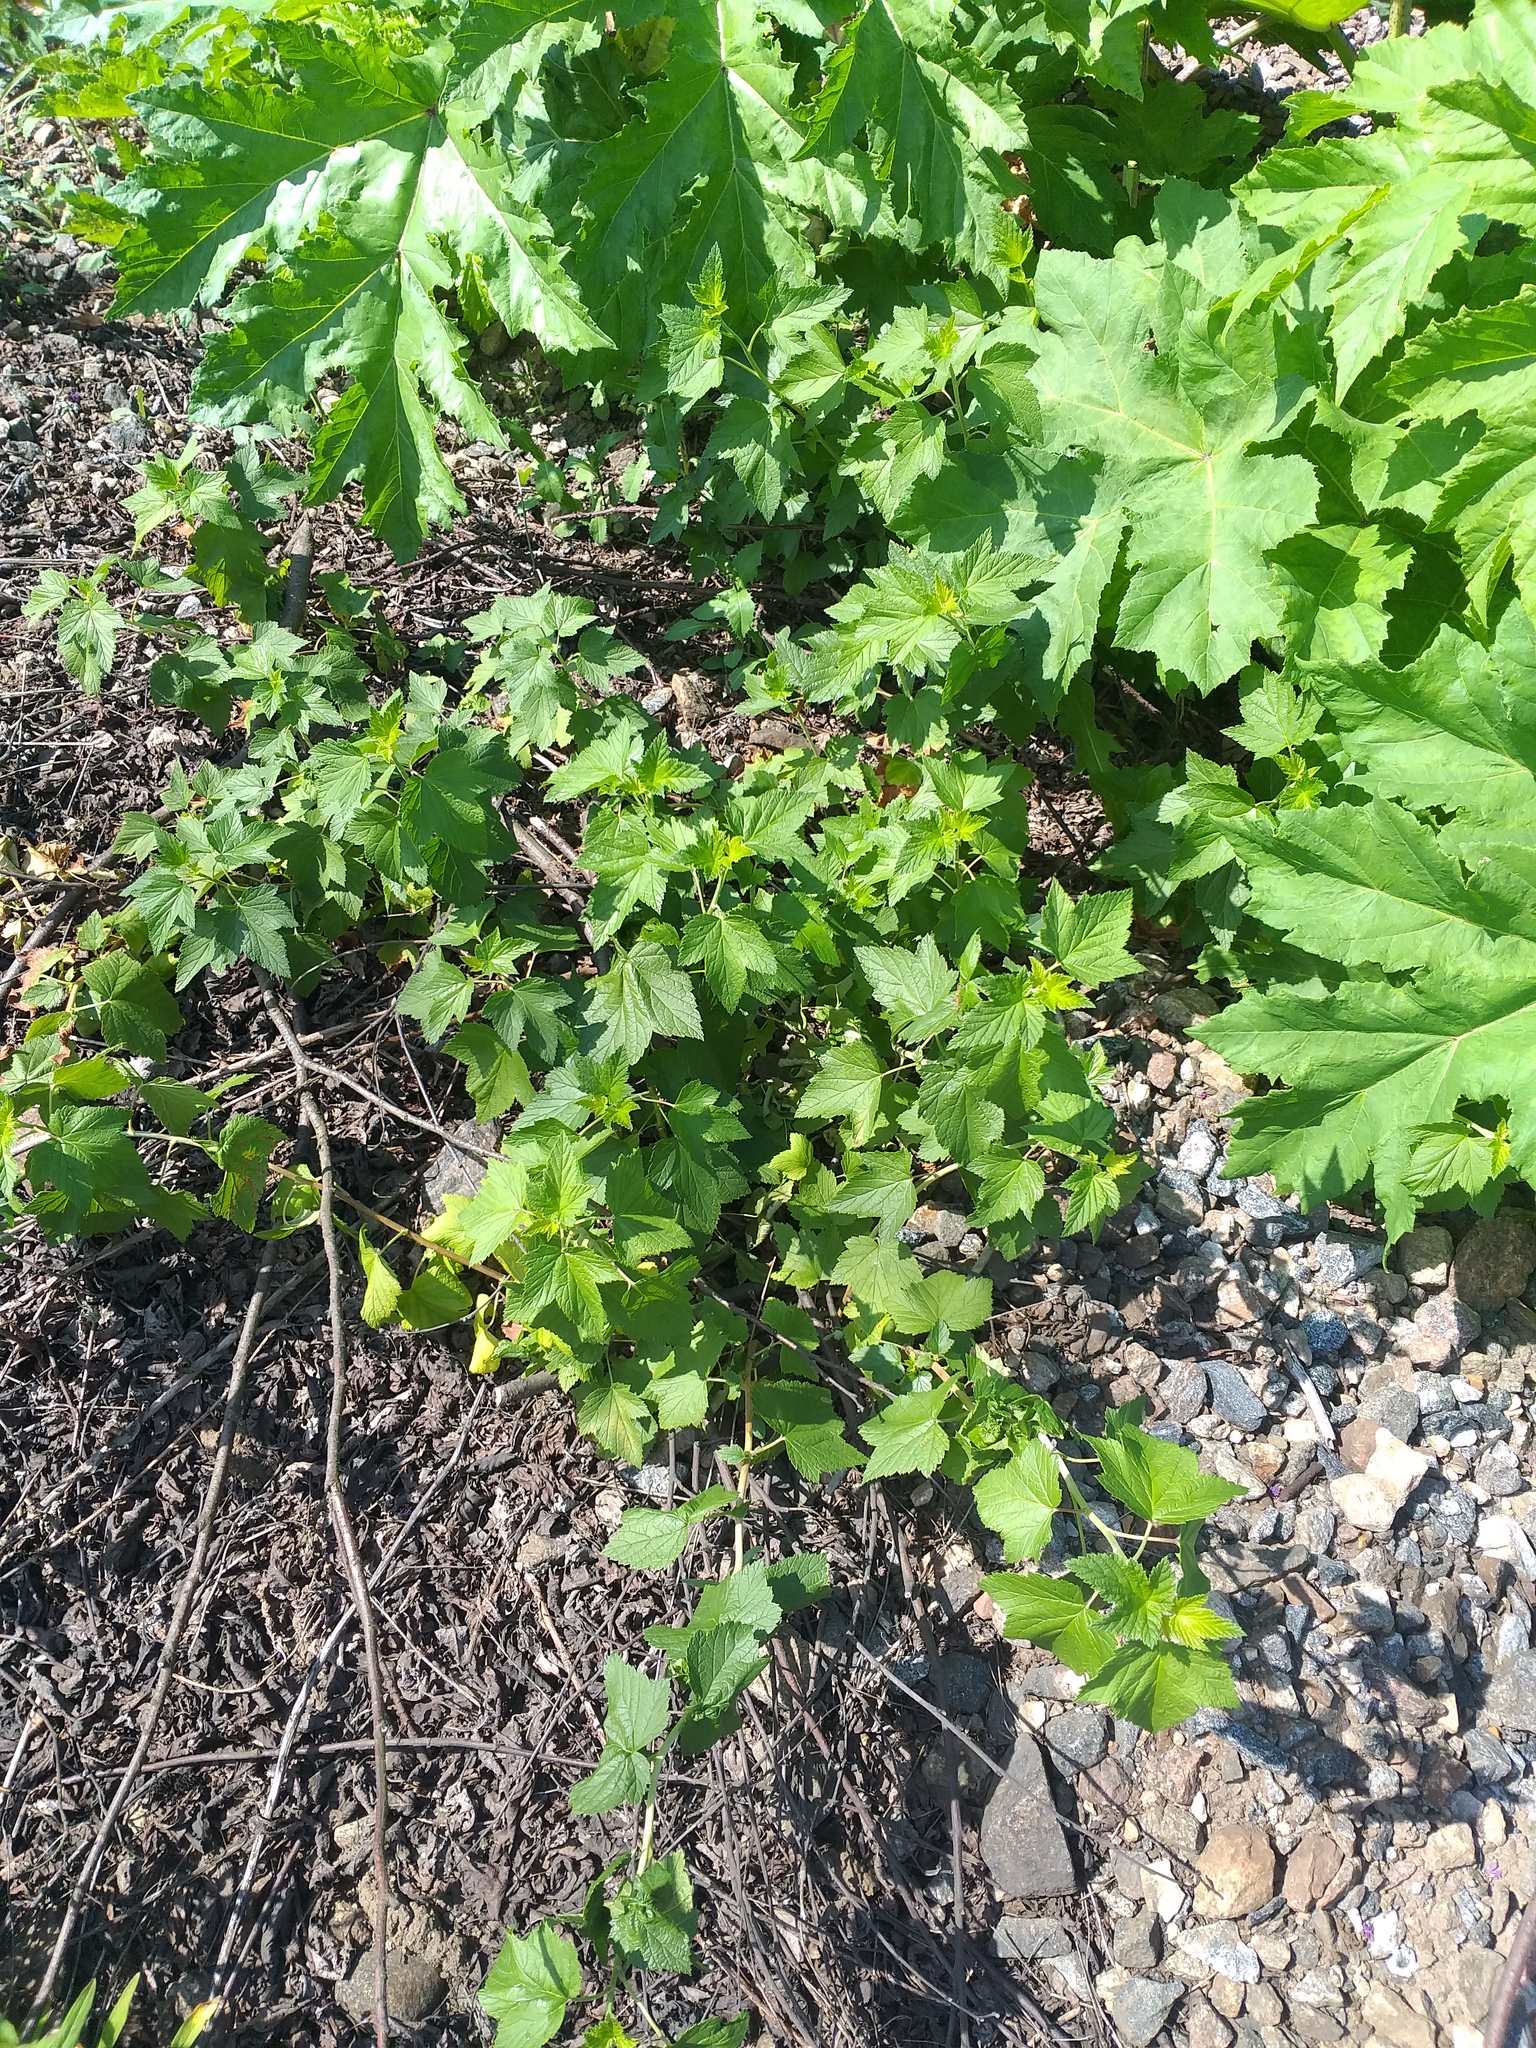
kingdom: Plantae
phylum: Tracheophyta
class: Magnoliopsida
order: Saxifragales
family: Grossulariaceae
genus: Ribes
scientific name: Ribes nigrum
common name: Black currant
